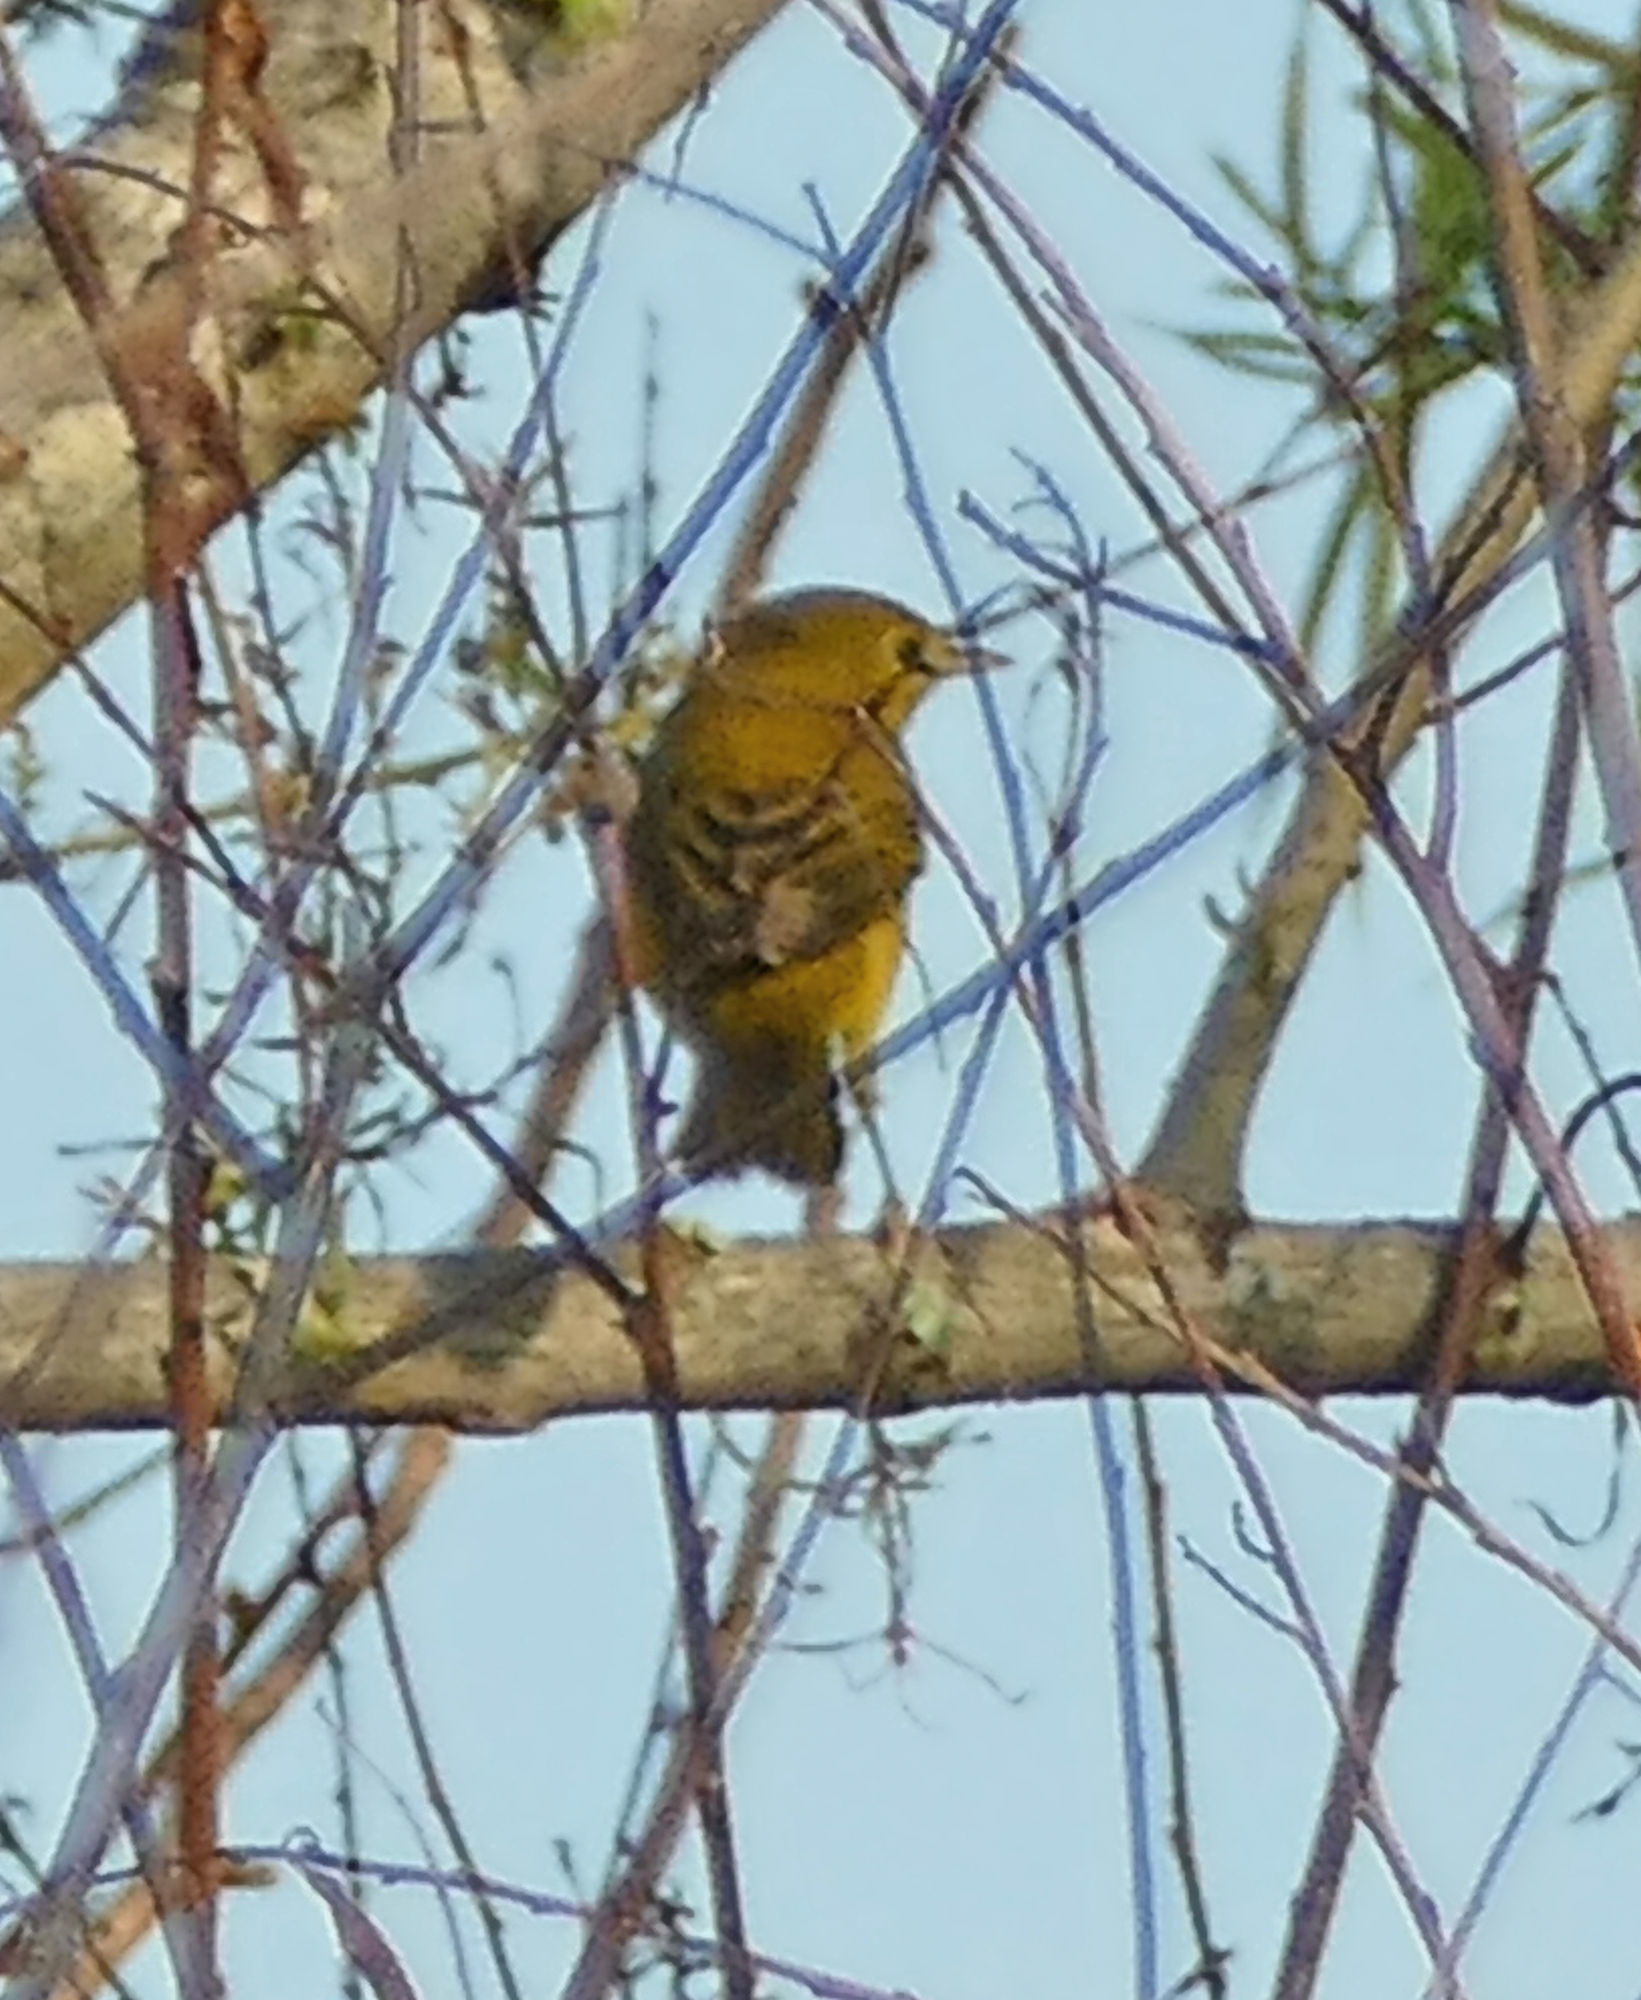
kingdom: Animalia
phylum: Chordata
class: Aves
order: Passeriformes
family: Parulidae
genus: Setophaga
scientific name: Setophaga petechia
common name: Yellow warbler
